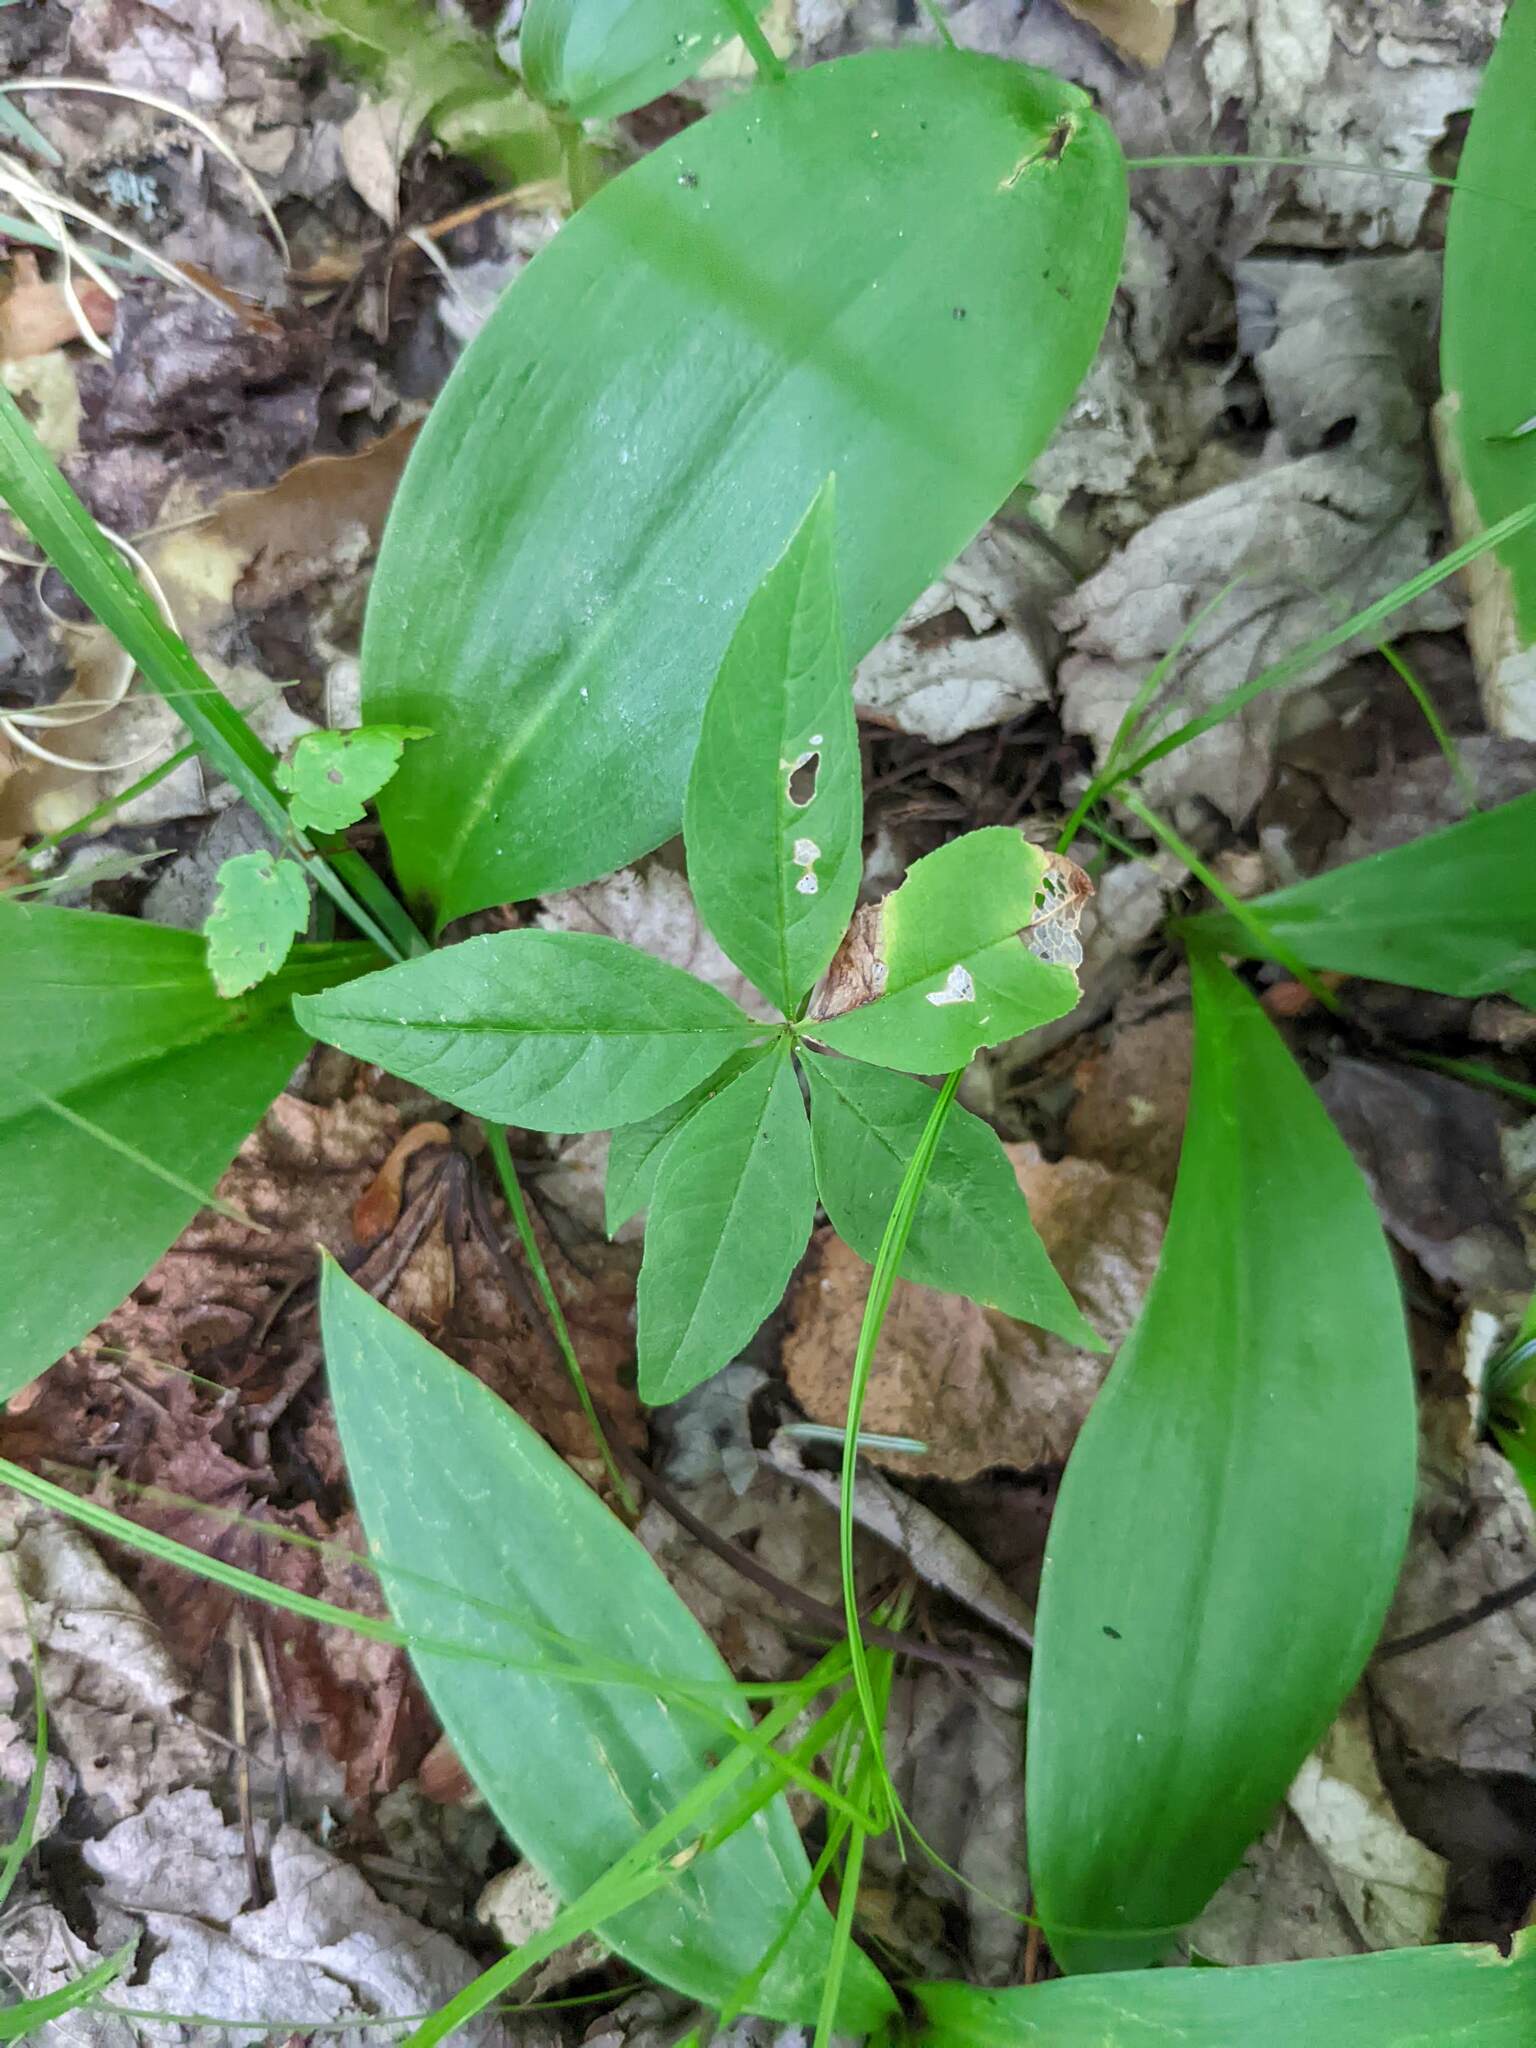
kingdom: Plantae
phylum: Tracheophyta
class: Magnoliopsida
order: Ericales
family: Primulaceae
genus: Lysimachia
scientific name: Lysimachia borealis
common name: American starflower
